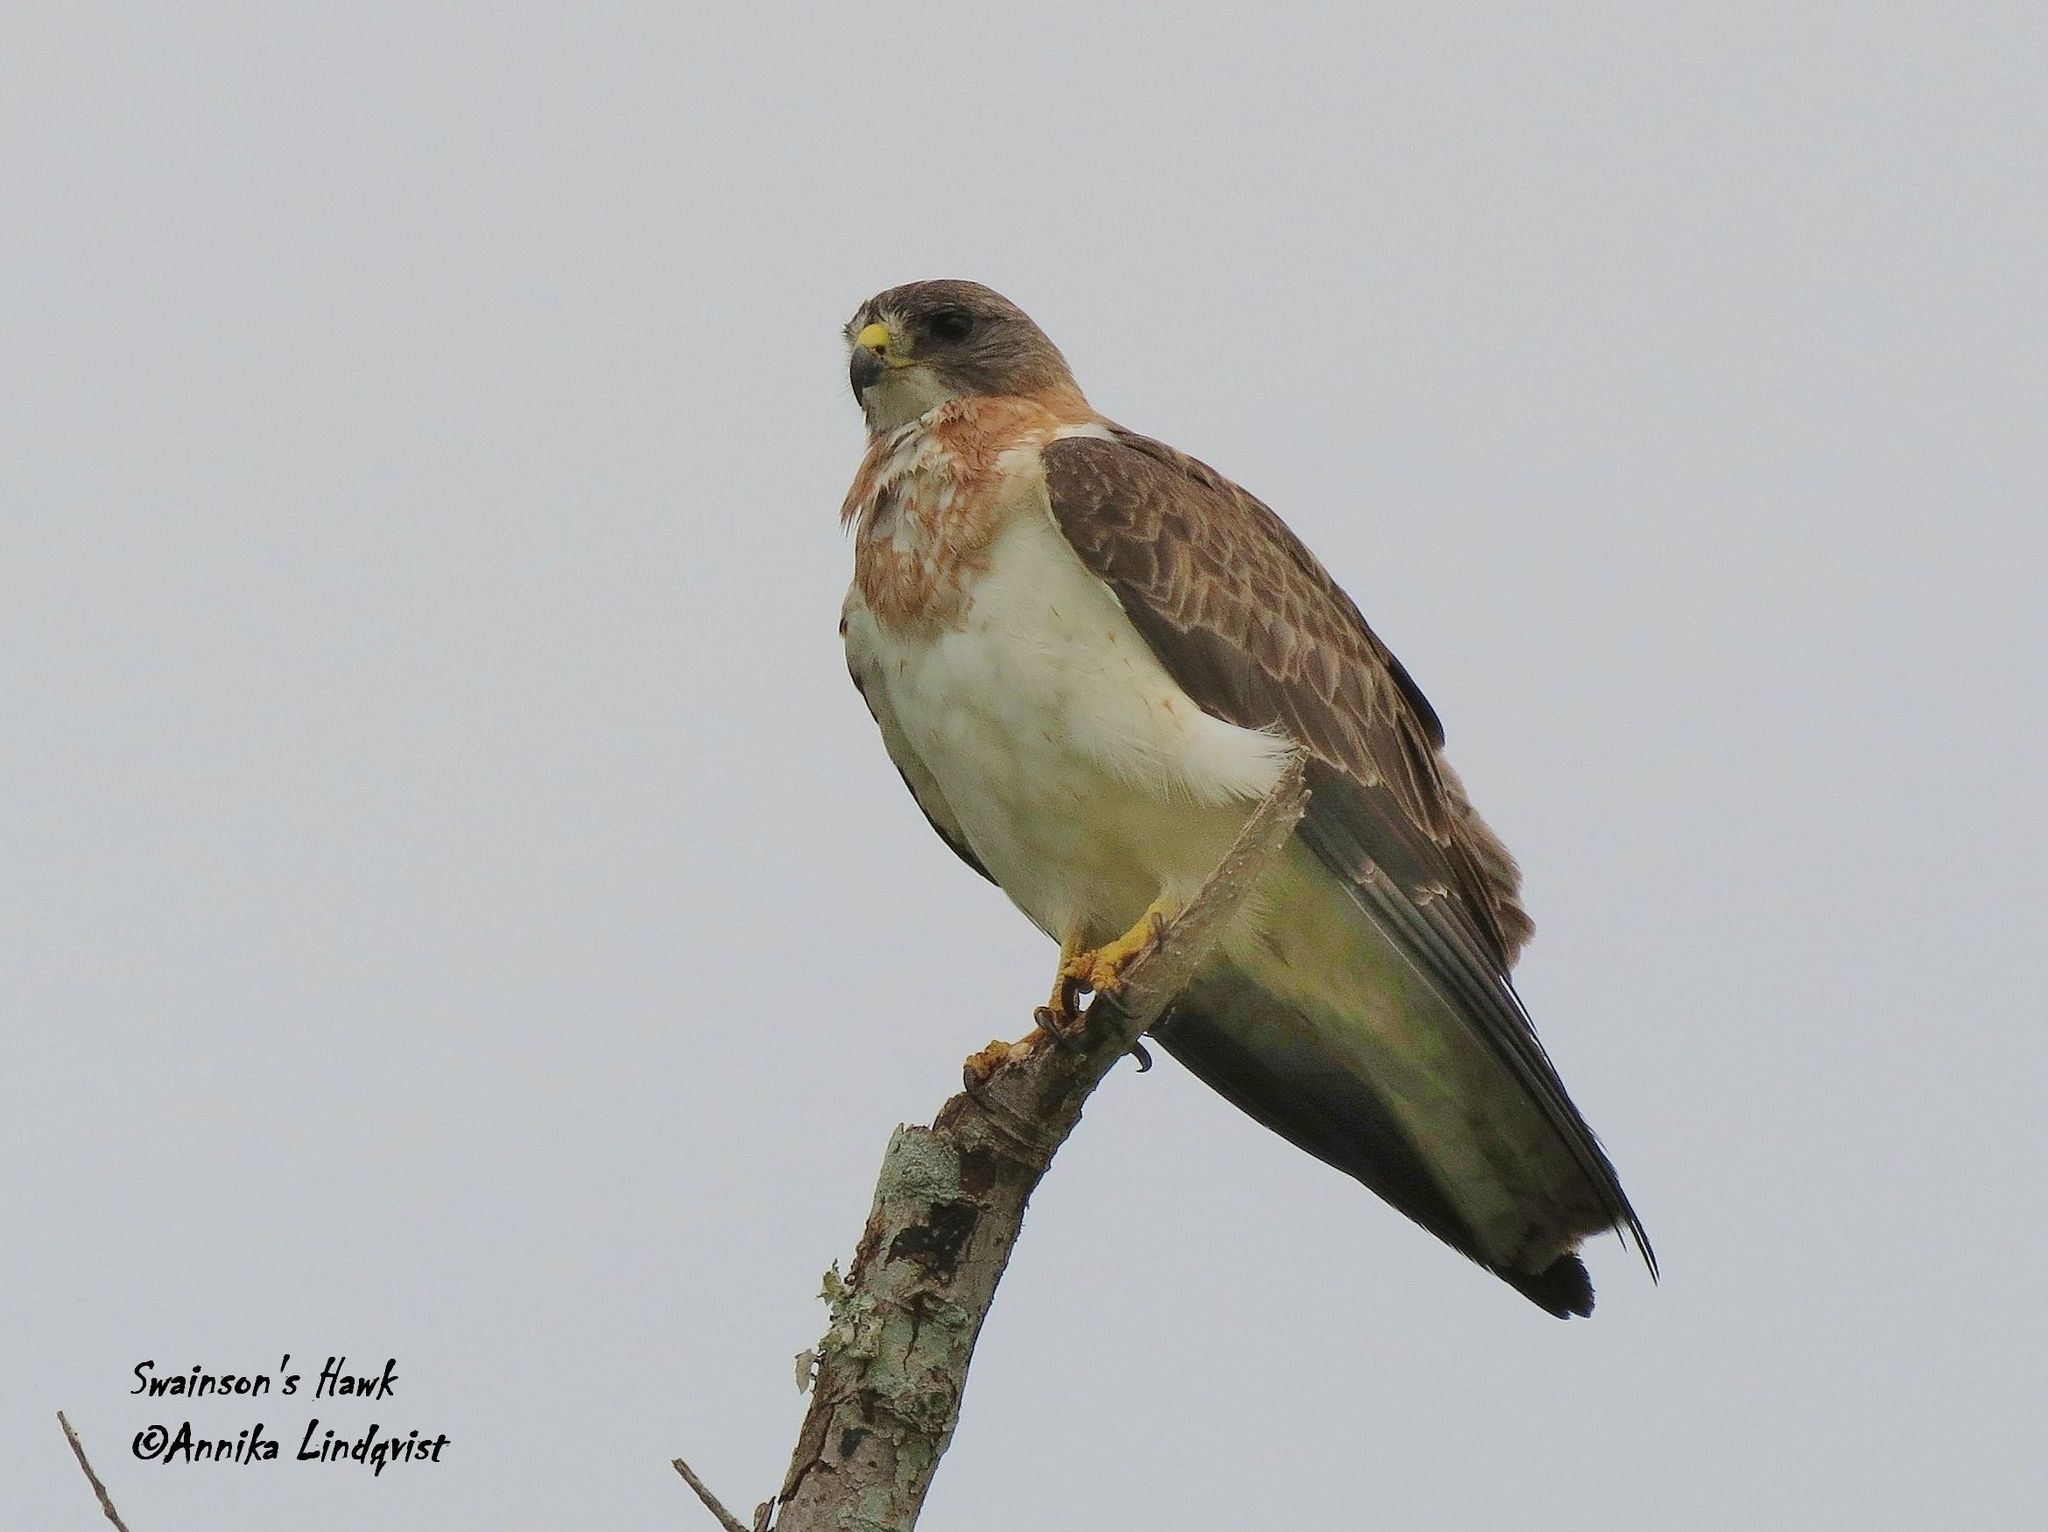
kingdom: Animalia
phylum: Chordata
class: Aves
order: Accipitriformes
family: Accipitridae
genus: Buteo
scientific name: Buteo swainsoni
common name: Swainson's hawk
